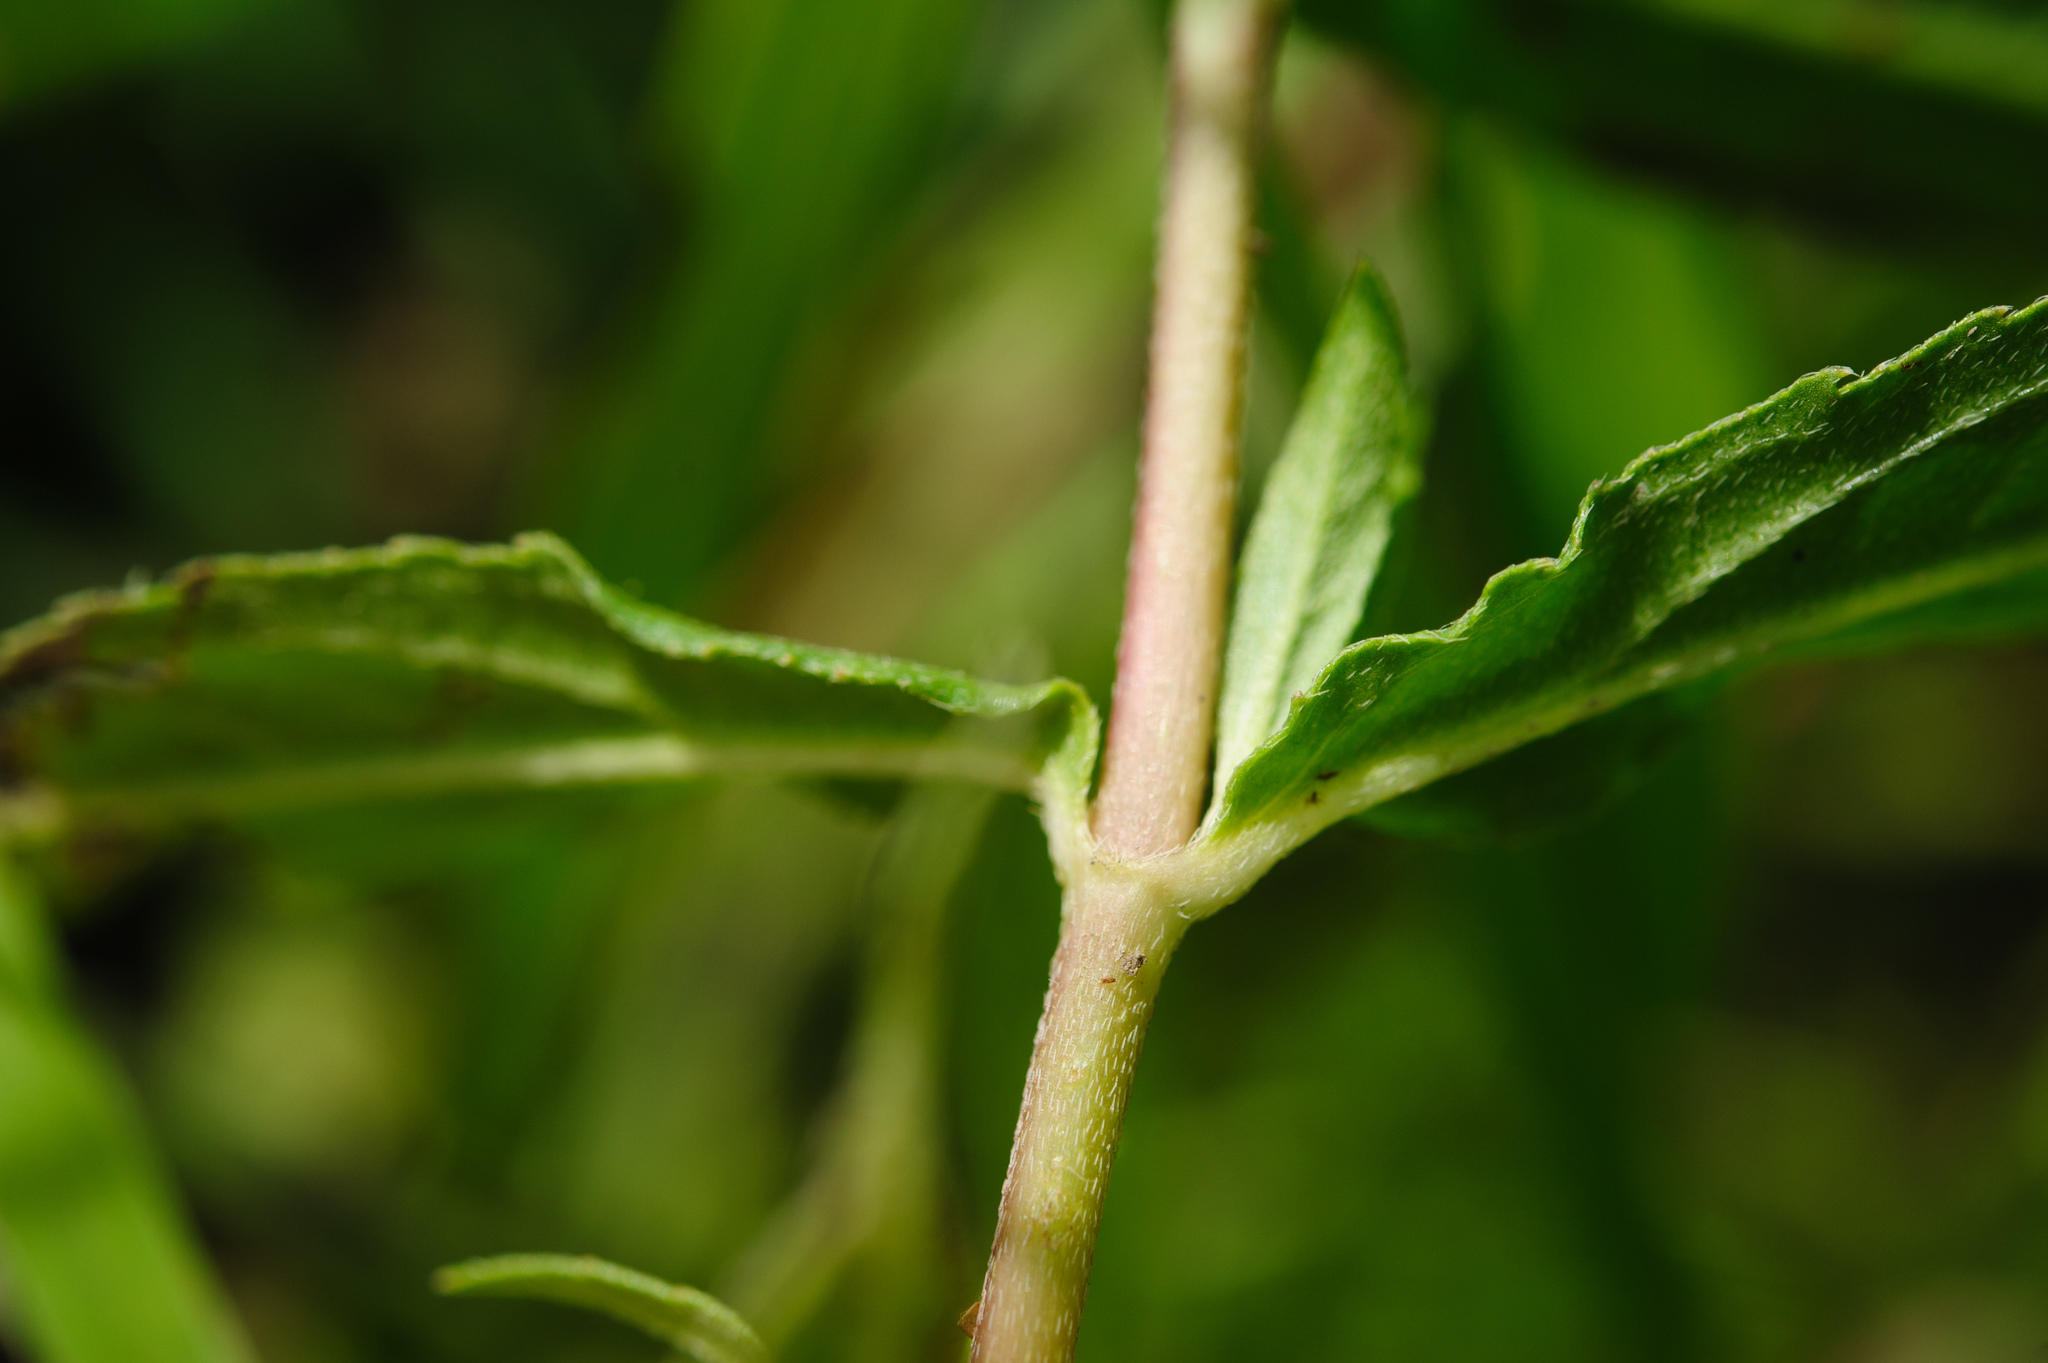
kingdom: Plantae
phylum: Tracheophyta
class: Magnoliopsida
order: Asterales
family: Asteraceae
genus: Eclipta
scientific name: Eclipta prostrata
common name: False daisy
